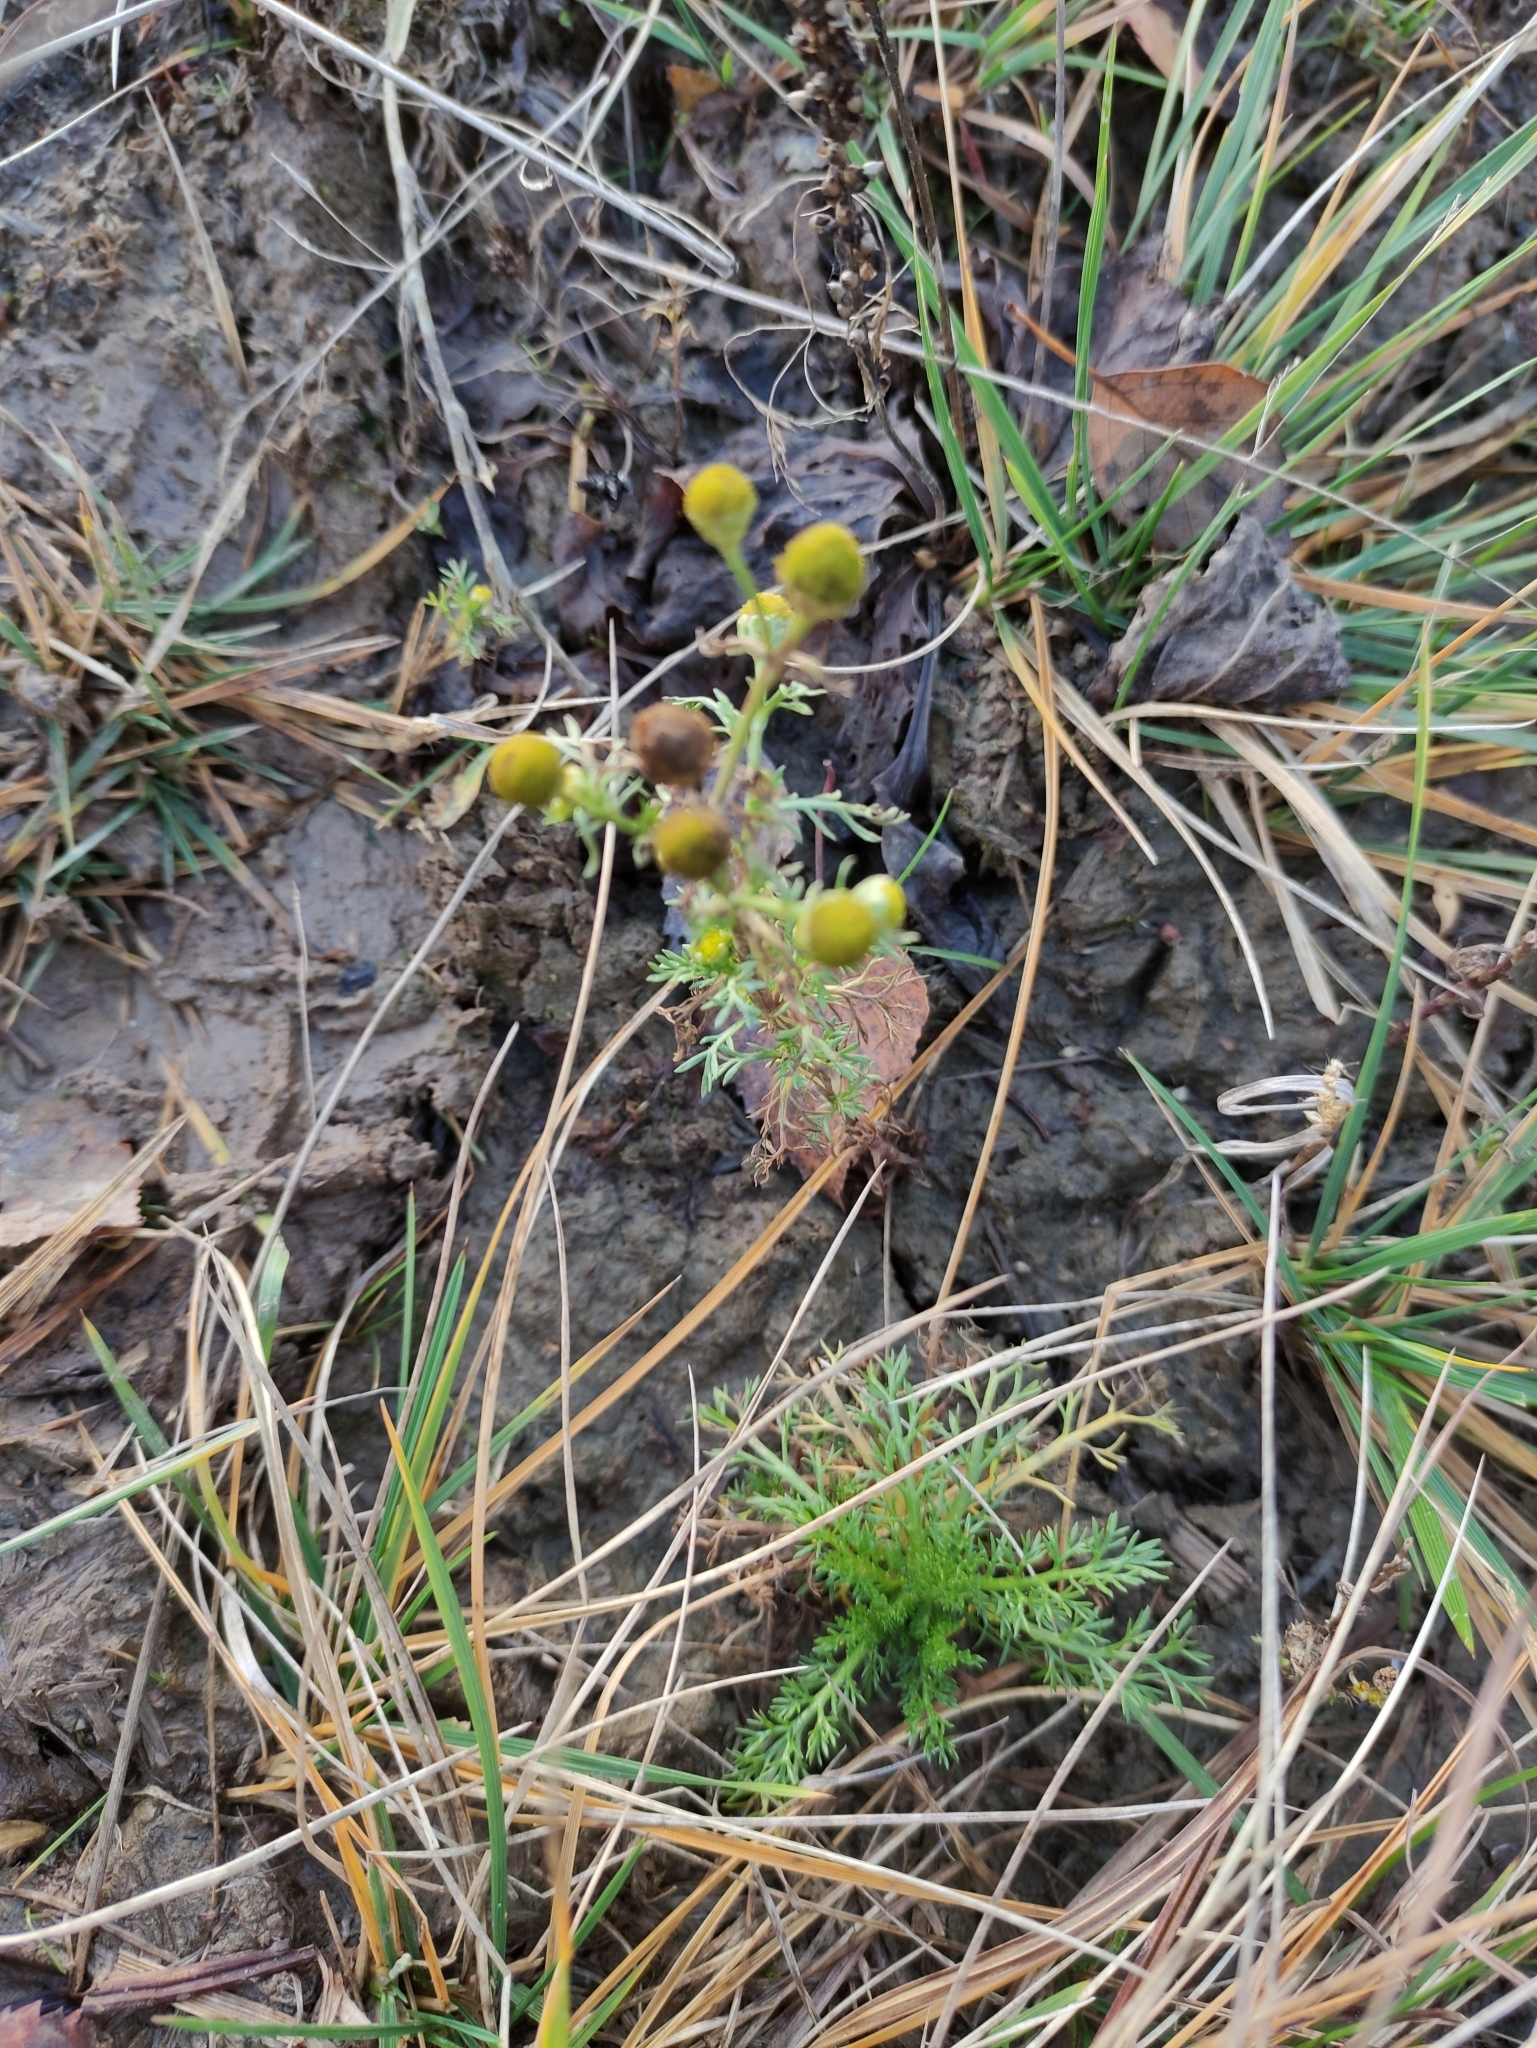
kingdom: Plantae
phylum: Tracheophyta
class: Magnoliopsida
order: Asterales
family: Asteraceae
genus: Matricaria
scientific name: Matricaria discoidea
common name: Disc mayweed
